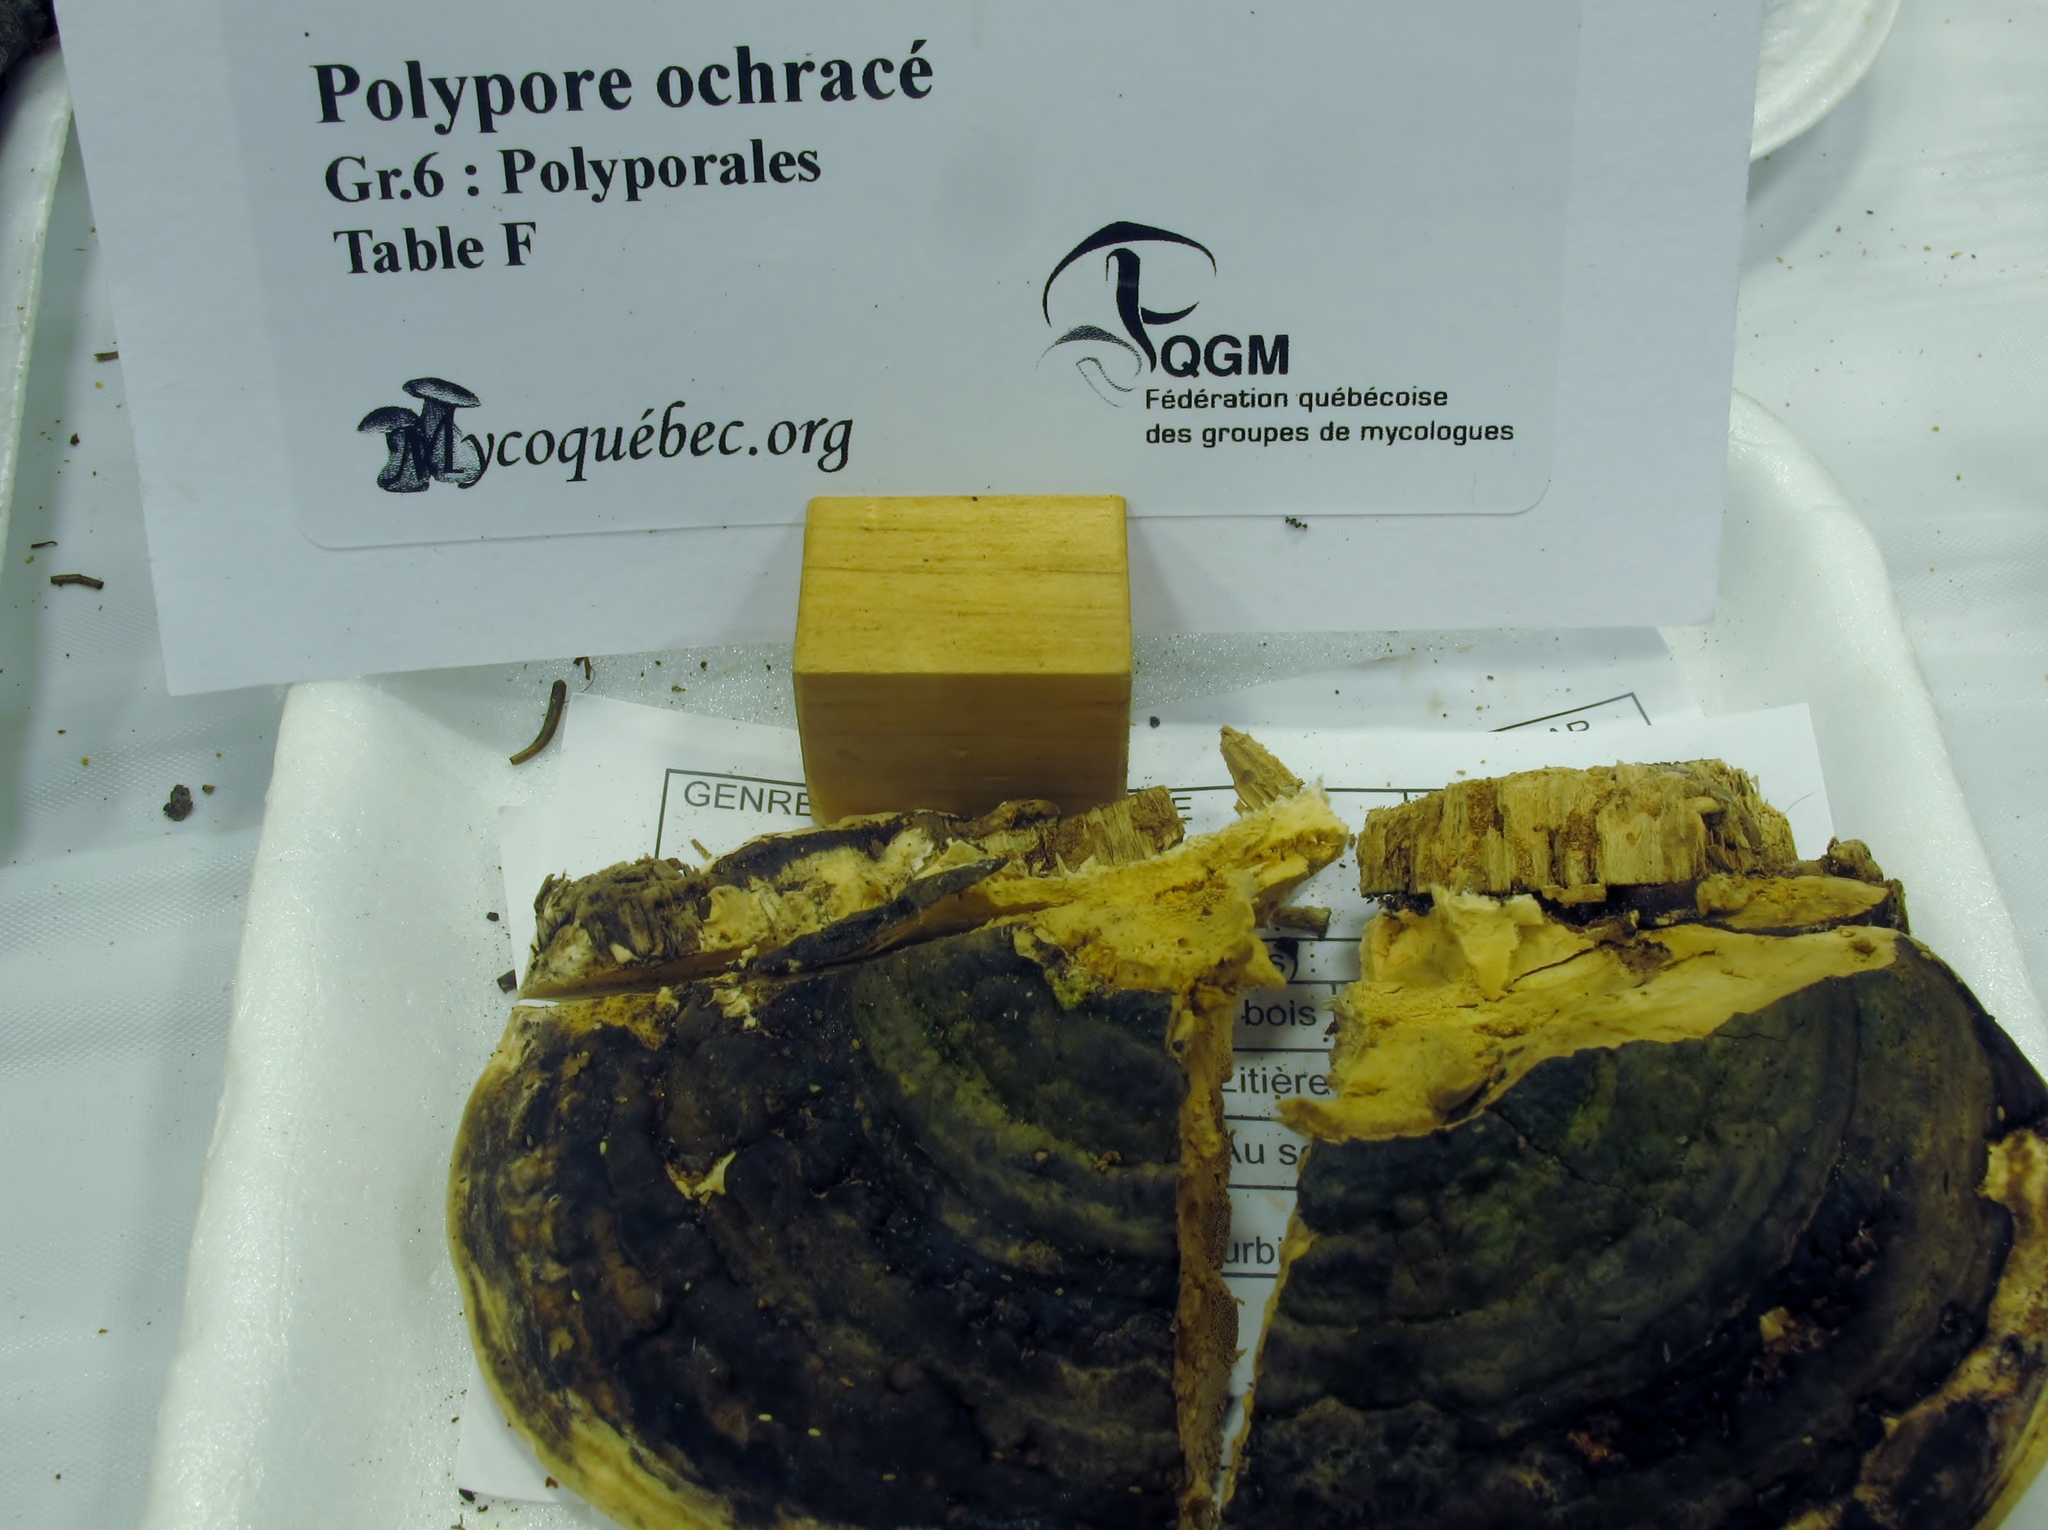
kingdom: Fungi
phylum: Basidiomycota
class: Agaricomycetes
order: Polyporales
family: Fomitopsidaceae
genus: Fomitopsis
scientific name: Fomitopsis ochracea
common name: American brown fomitopsis
